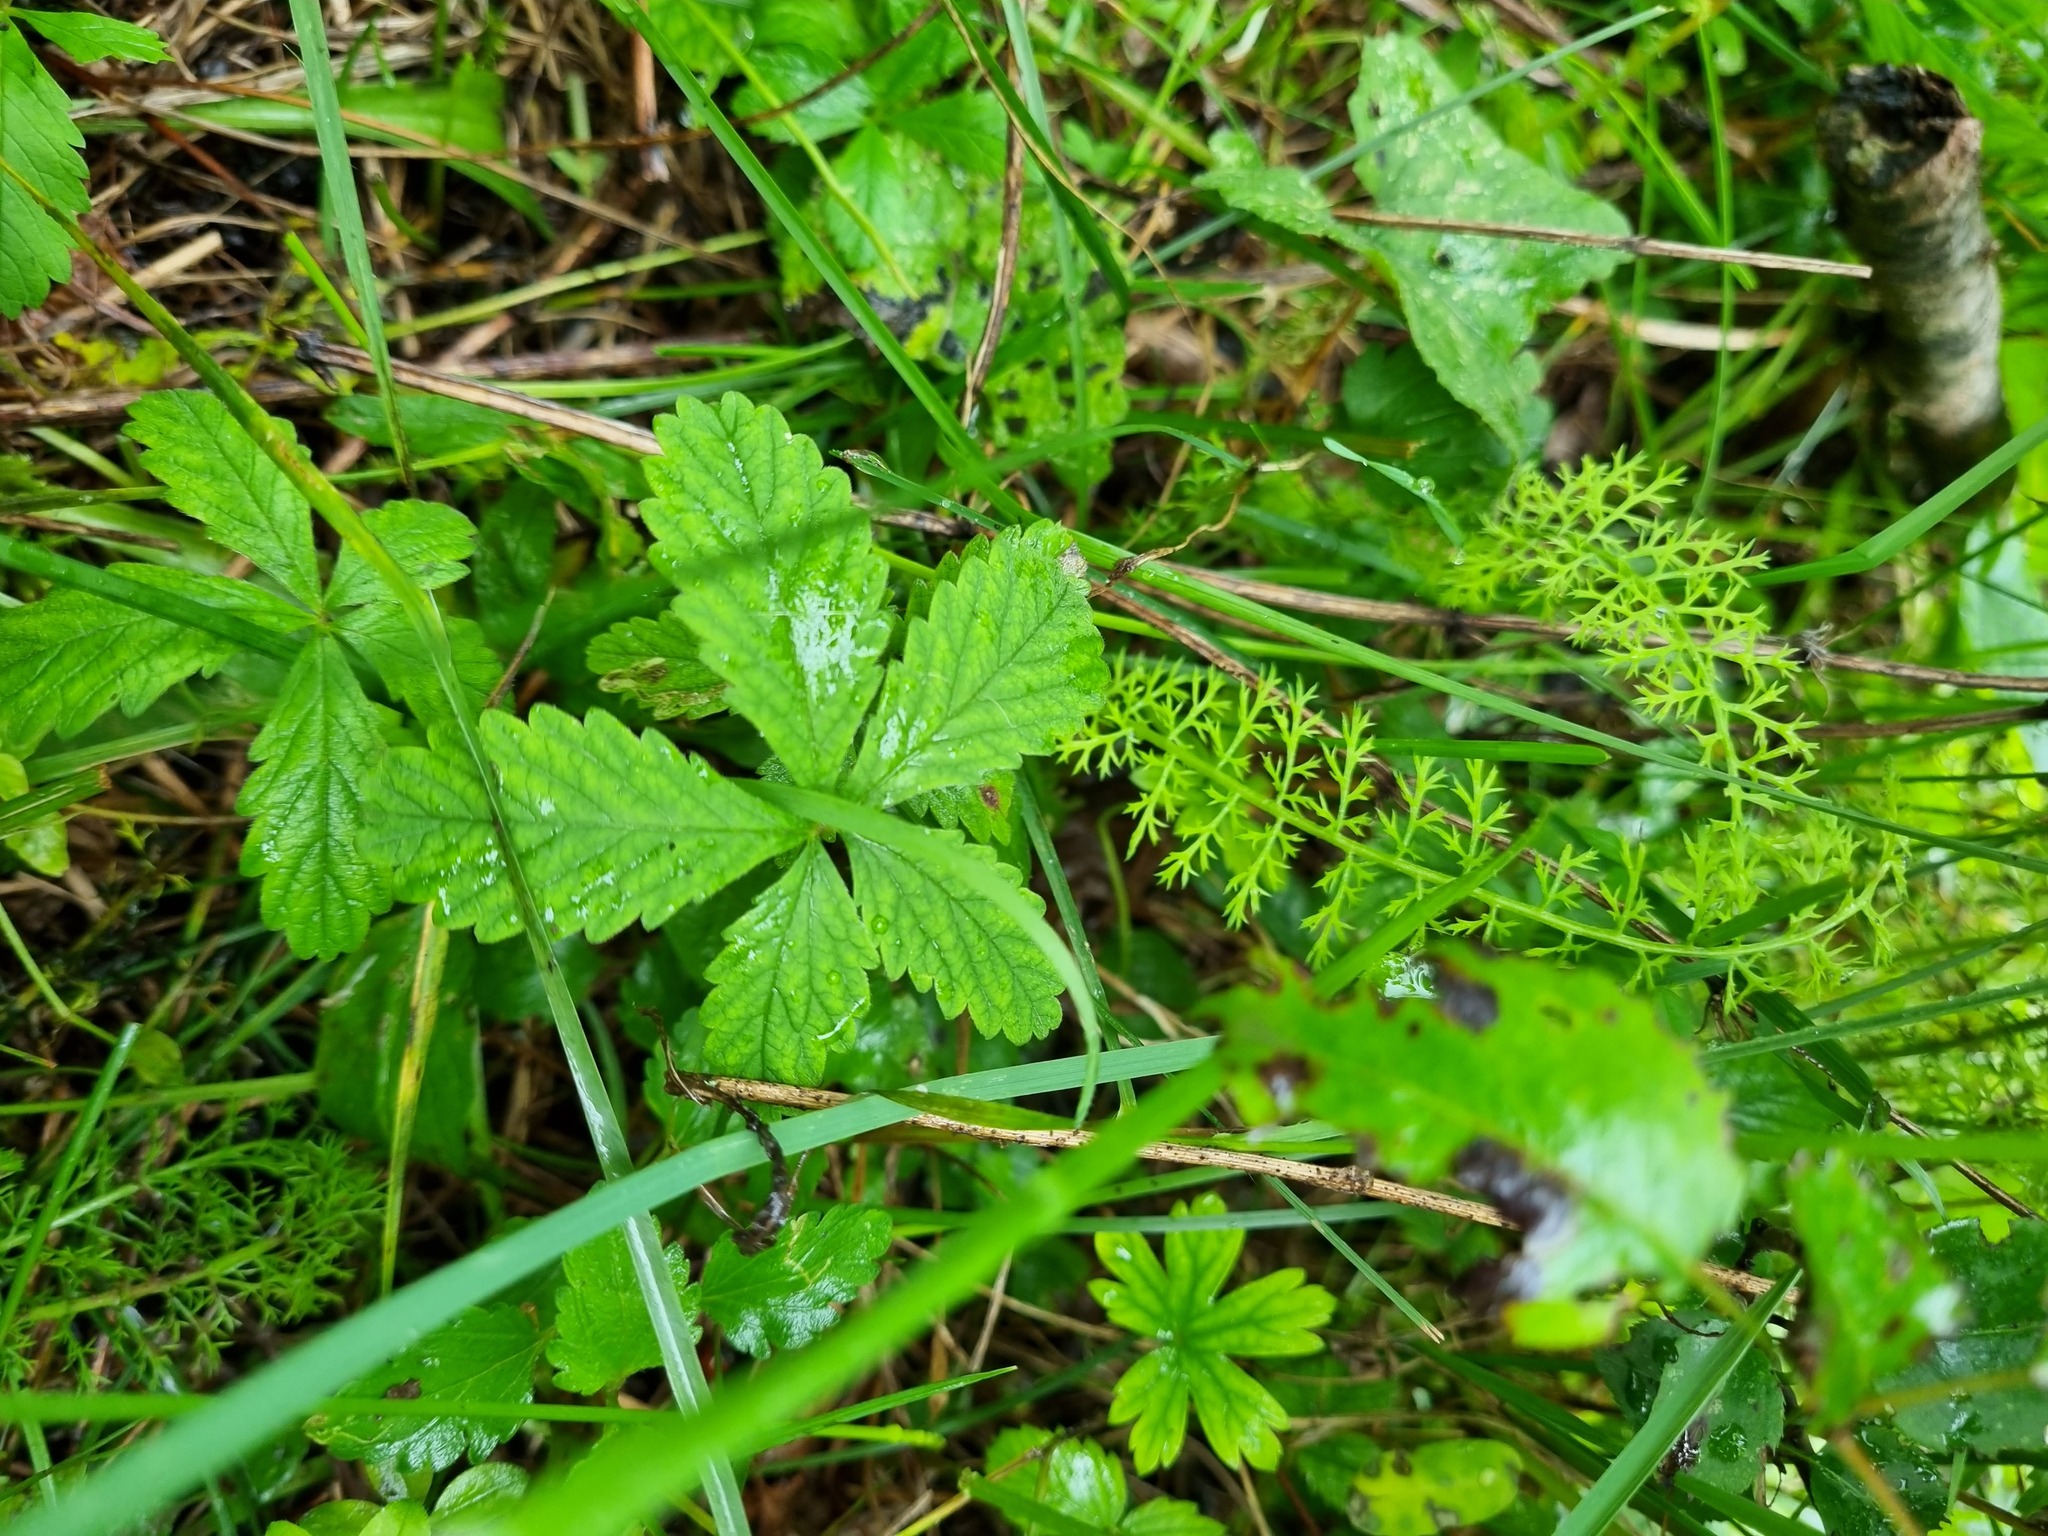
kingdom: Plantae
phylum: Tracheophyta
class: Magnoliopsida
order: Rosales
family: Rosaceae
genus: Potentilla
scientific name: Potentilla reptans
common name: Creeping cinquefoil
